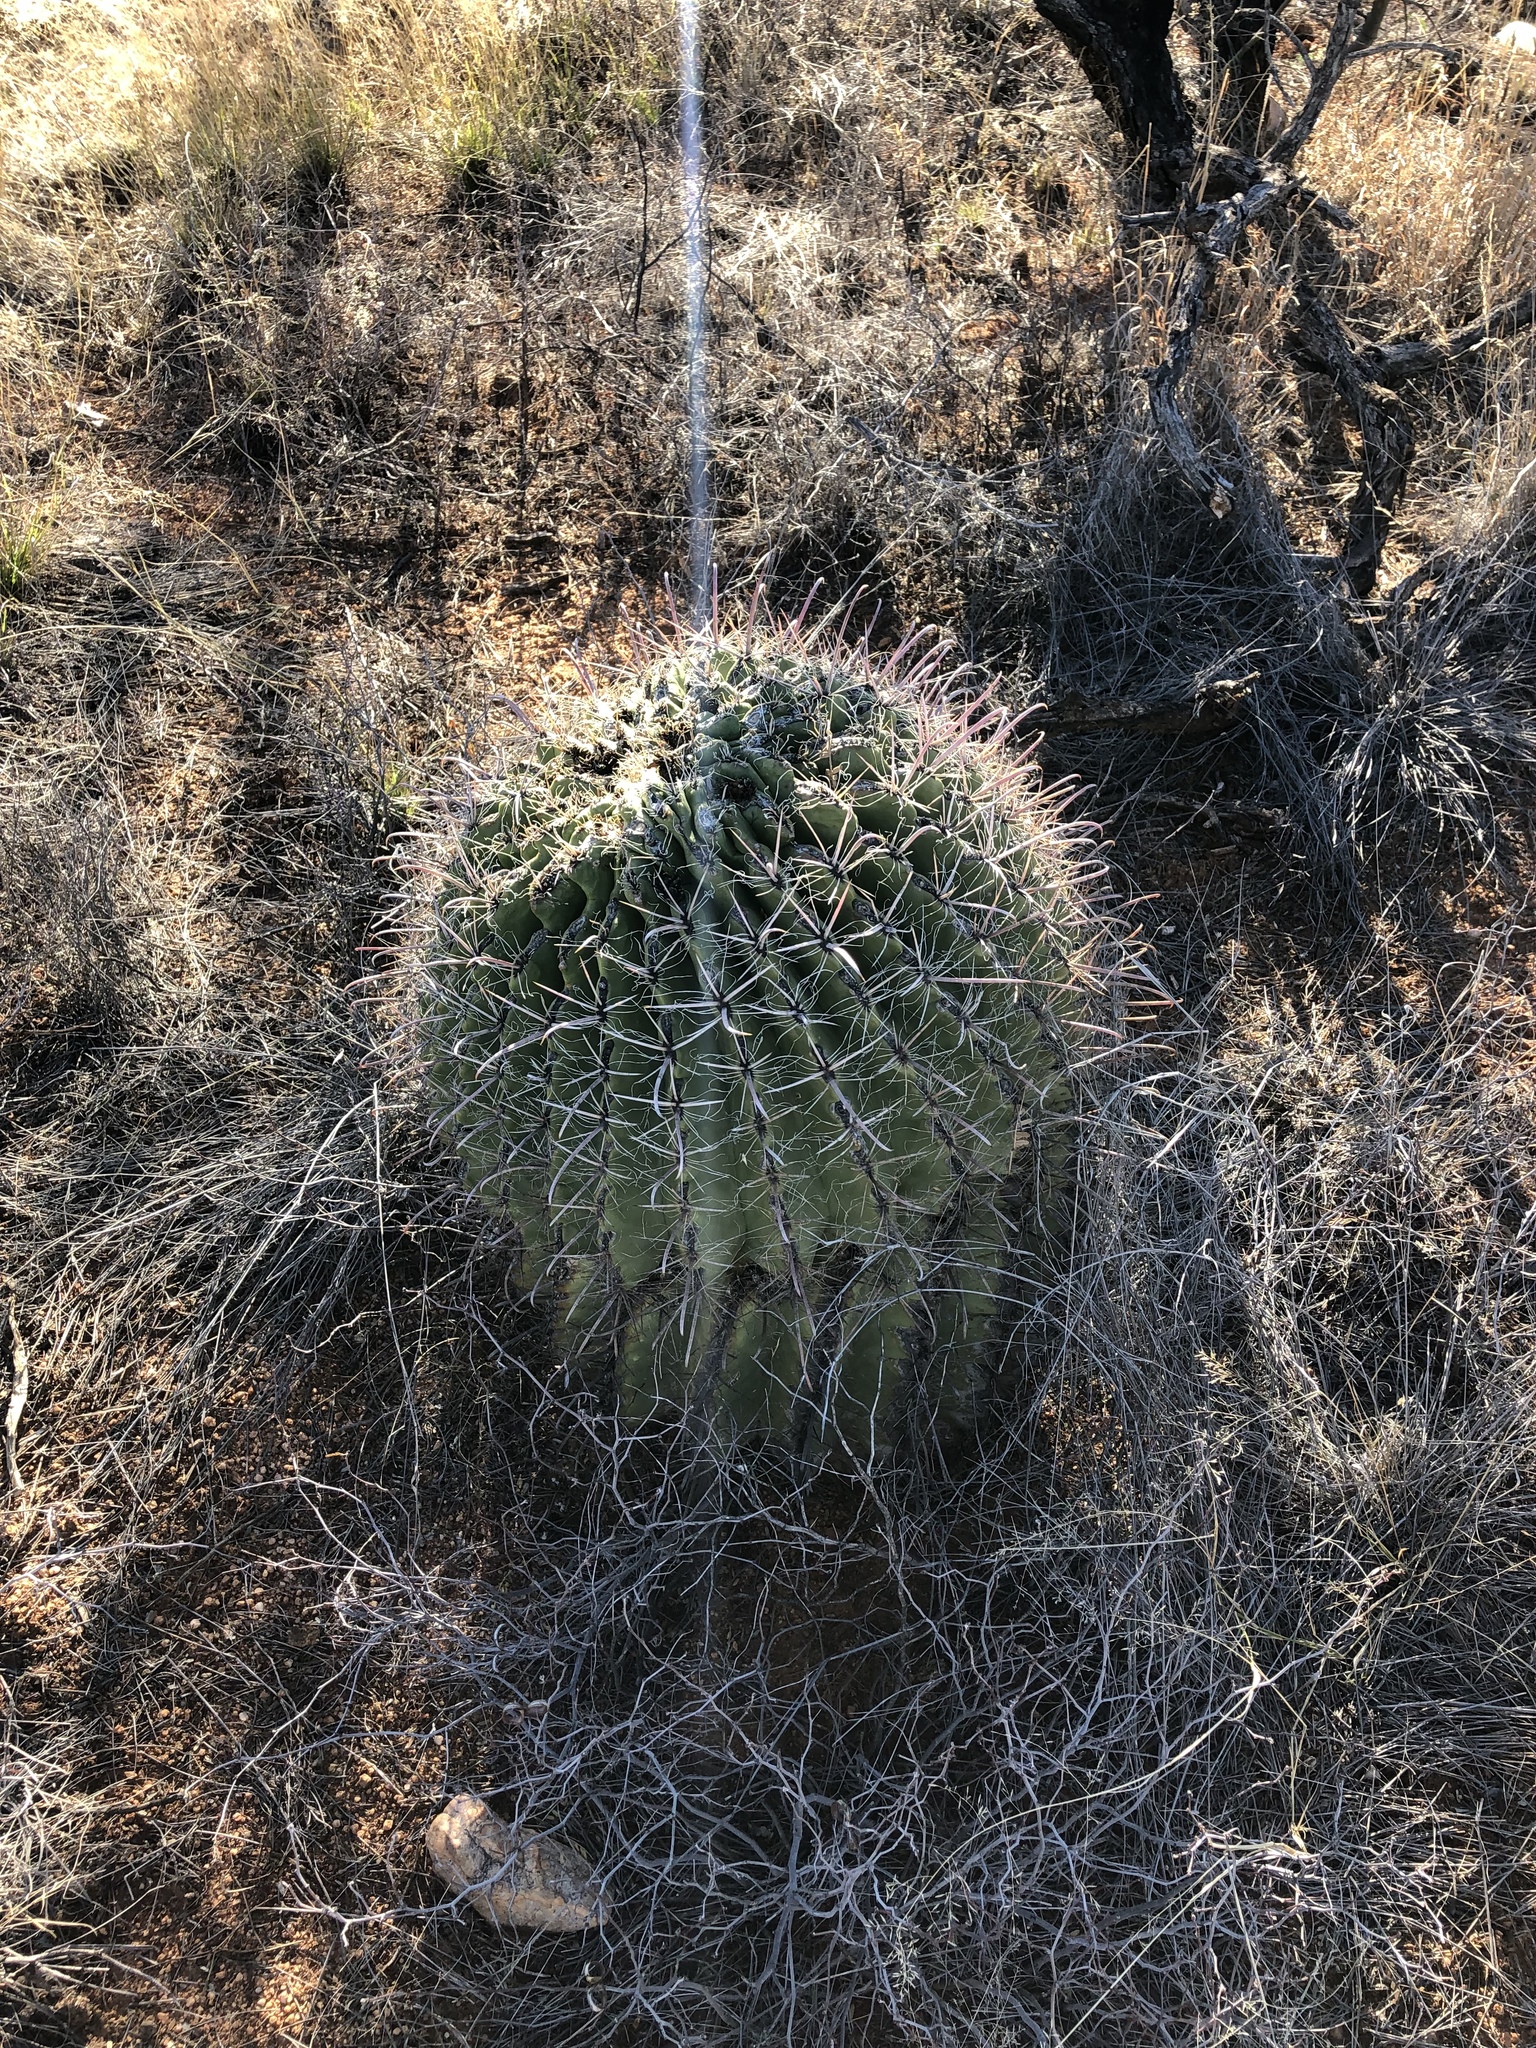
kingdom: Plantae
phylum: Tracheophyta
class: Magnoliopsida
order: Caryophyllales
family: Cactaceae
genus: Ferocactus
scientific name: Ferocactus wislizeni
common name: Candy barrel cactus
